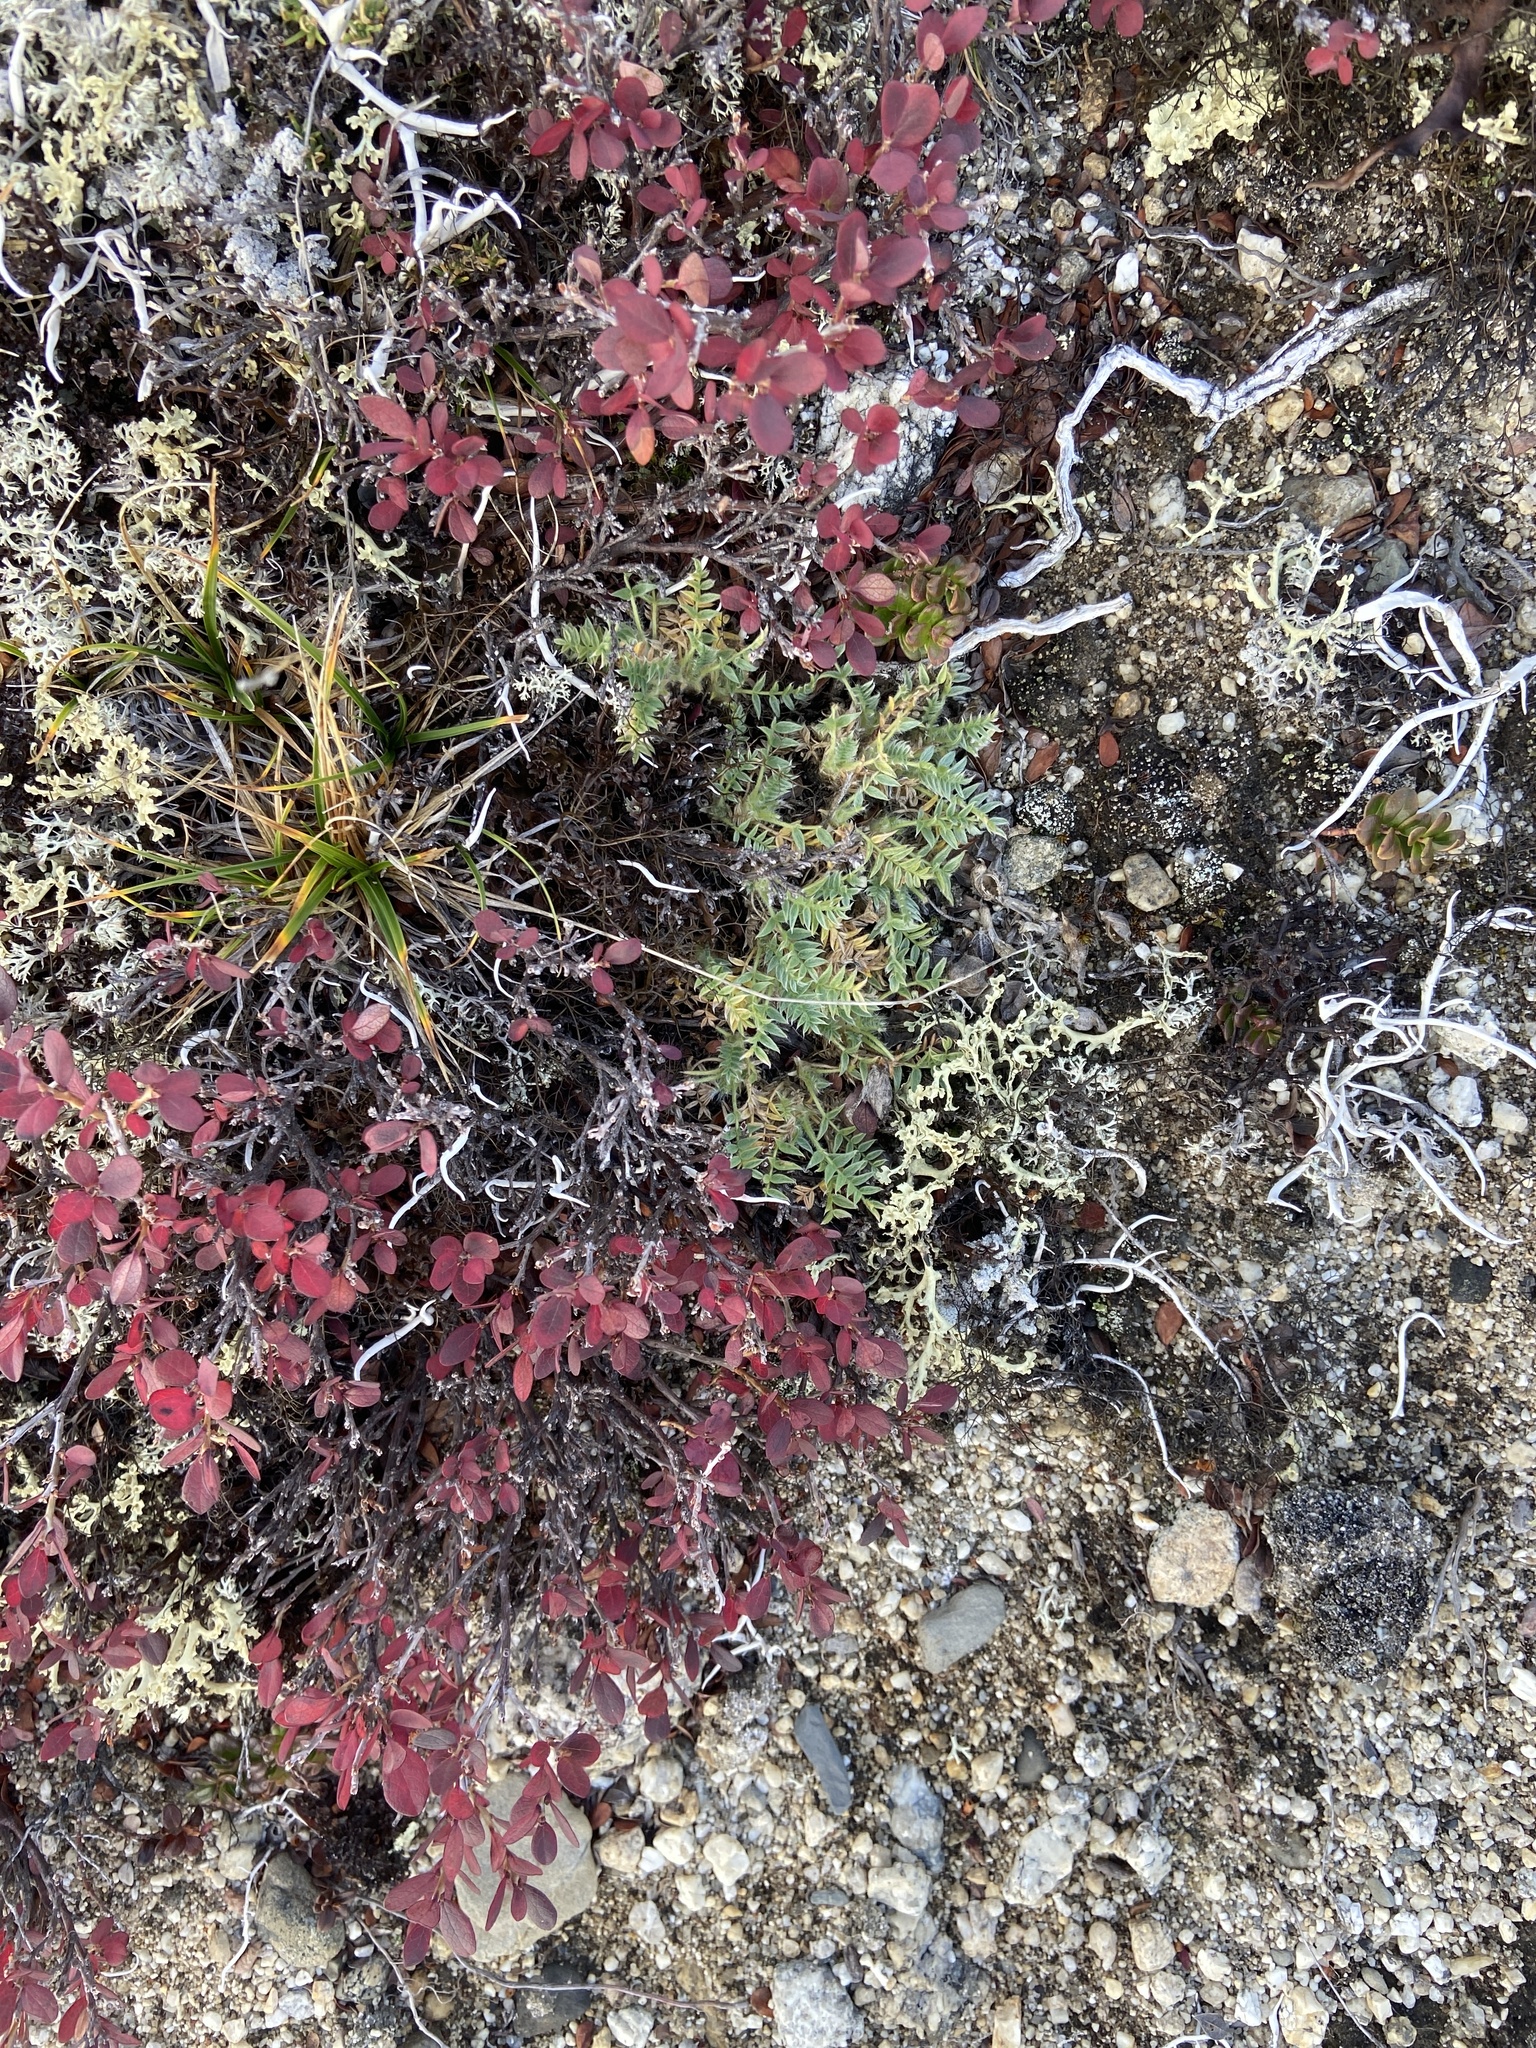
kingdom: Plantae
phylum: Tracheophyta
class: Magnoliopsida
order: Fabales
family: Fabaceae
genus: Oxytropis
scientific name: Oxytropis susumanica
